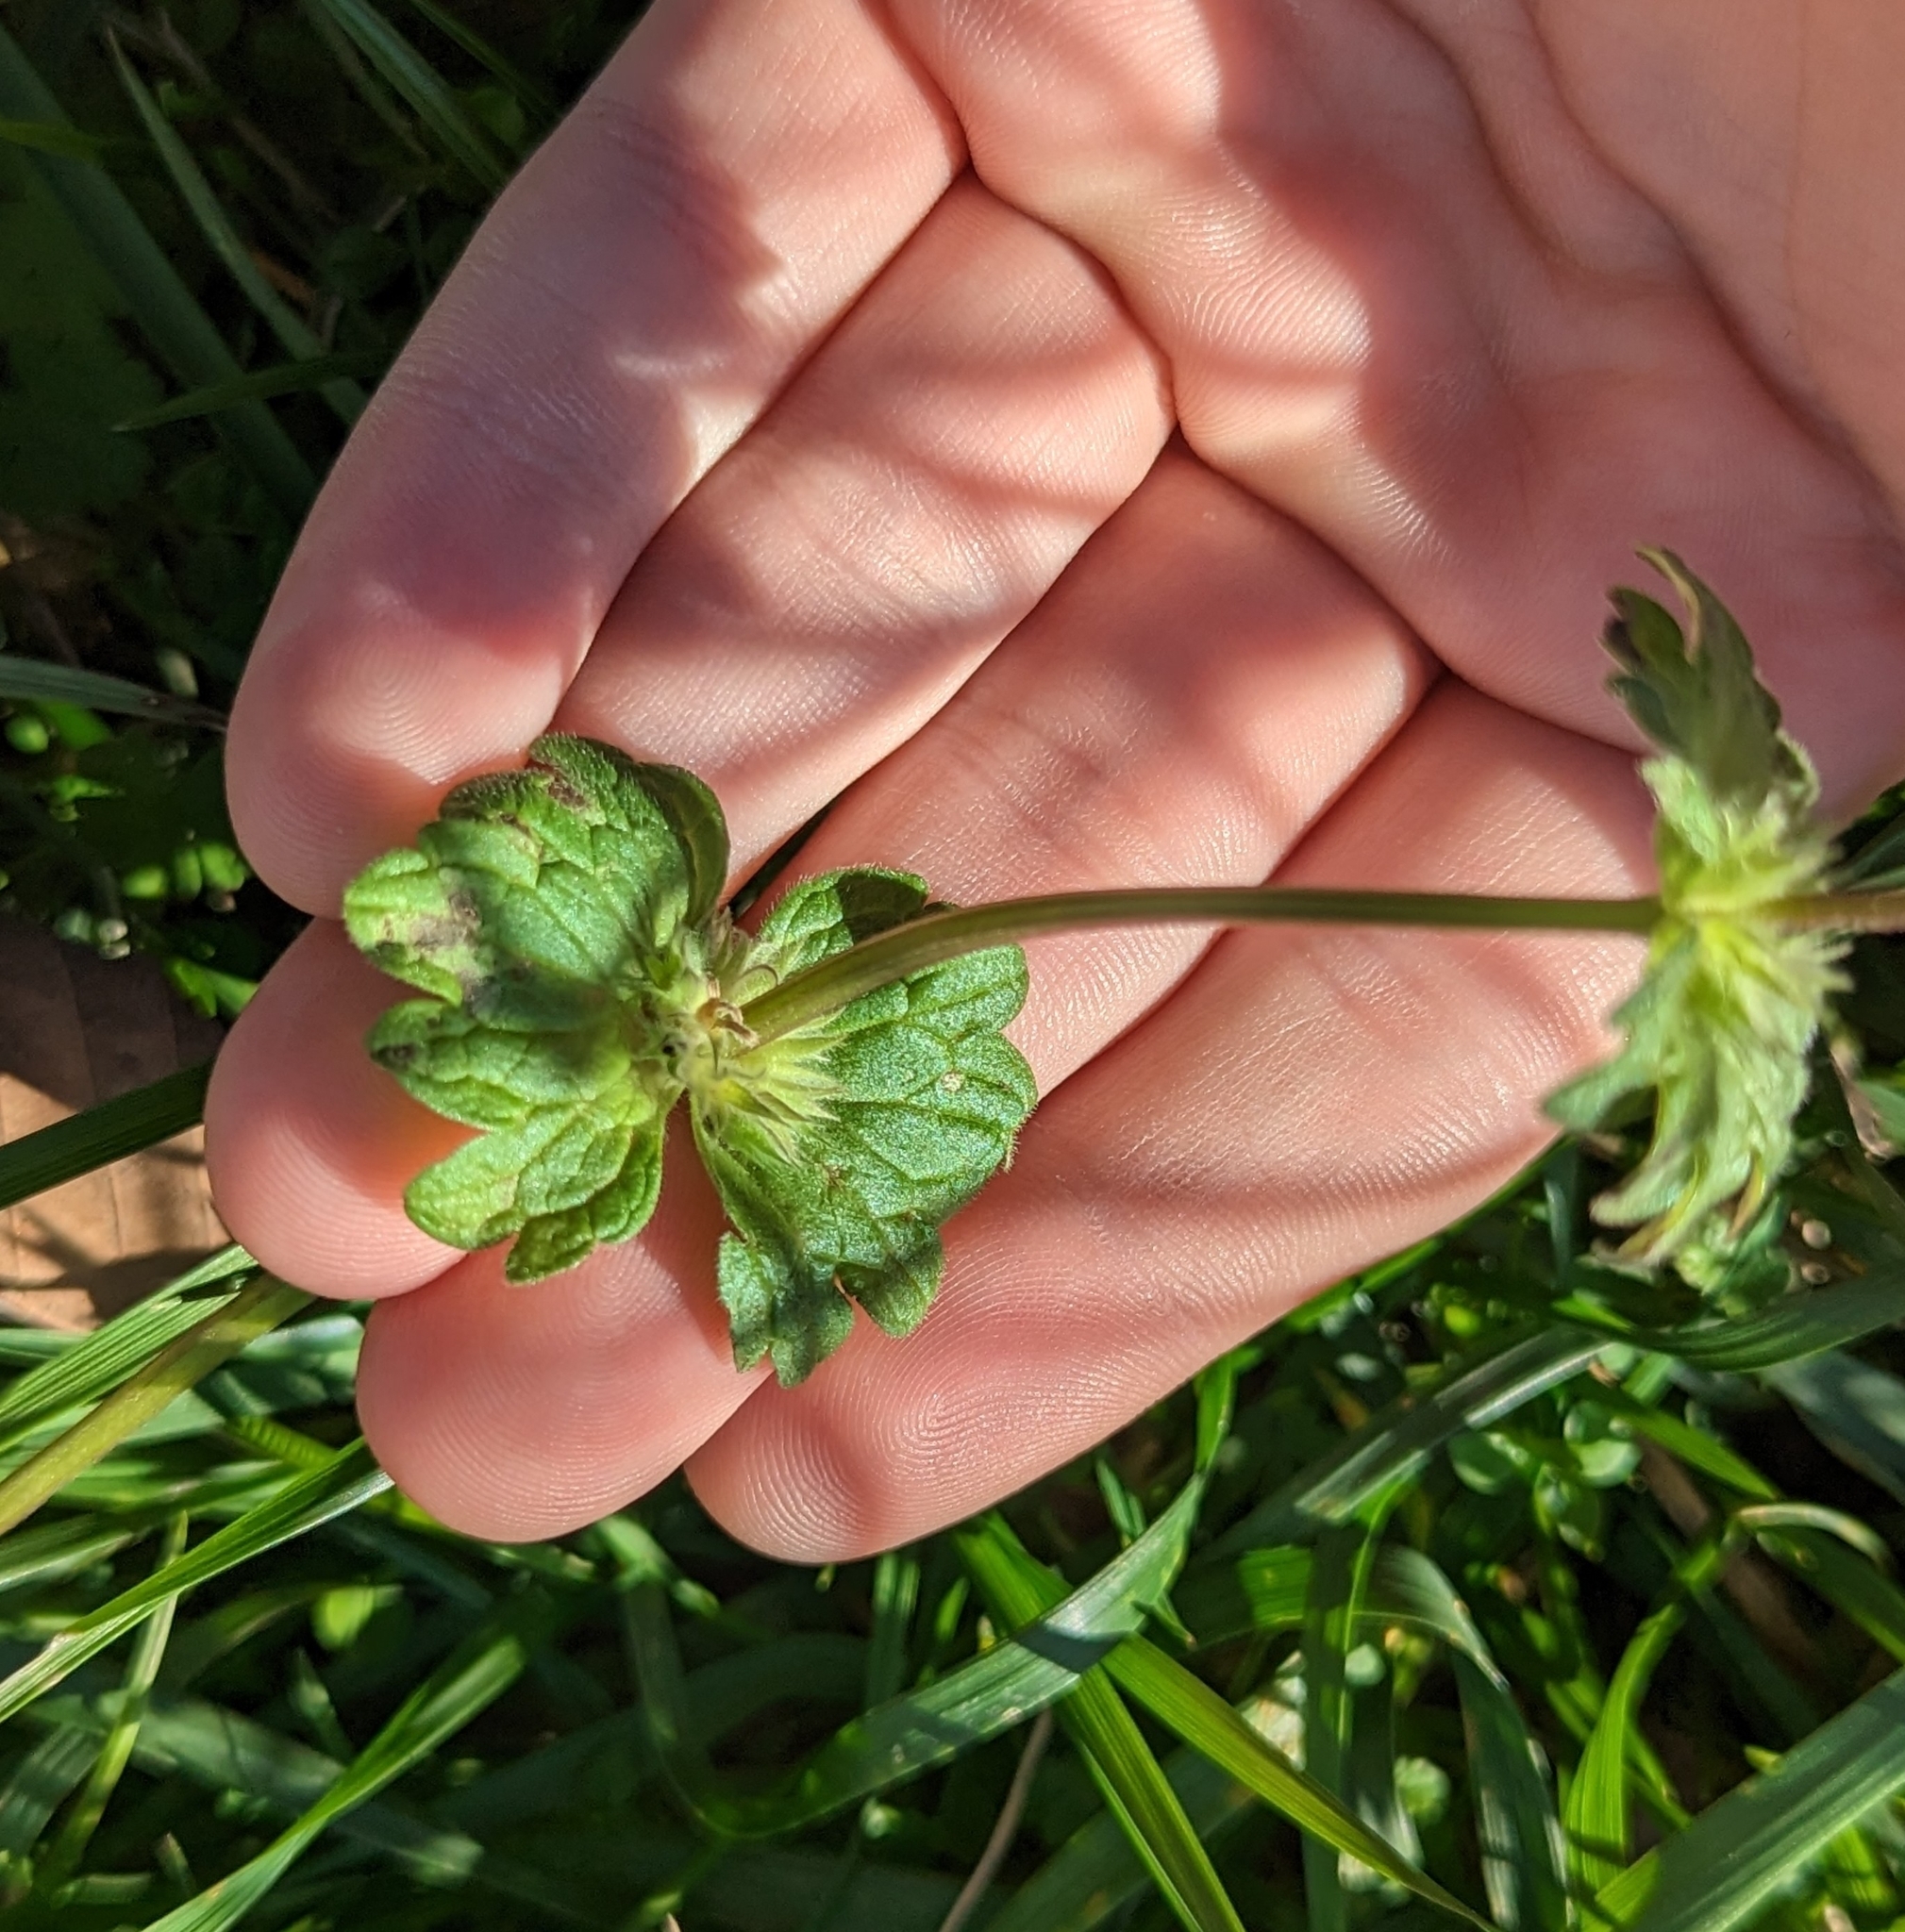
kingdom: Plantae
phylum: Tracheophyta
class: Magnoliopsida
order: Lamiales
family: Lamiaceae
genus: Lamium
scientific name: Lamium amplexicaule
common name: Henbit dead-nettle
